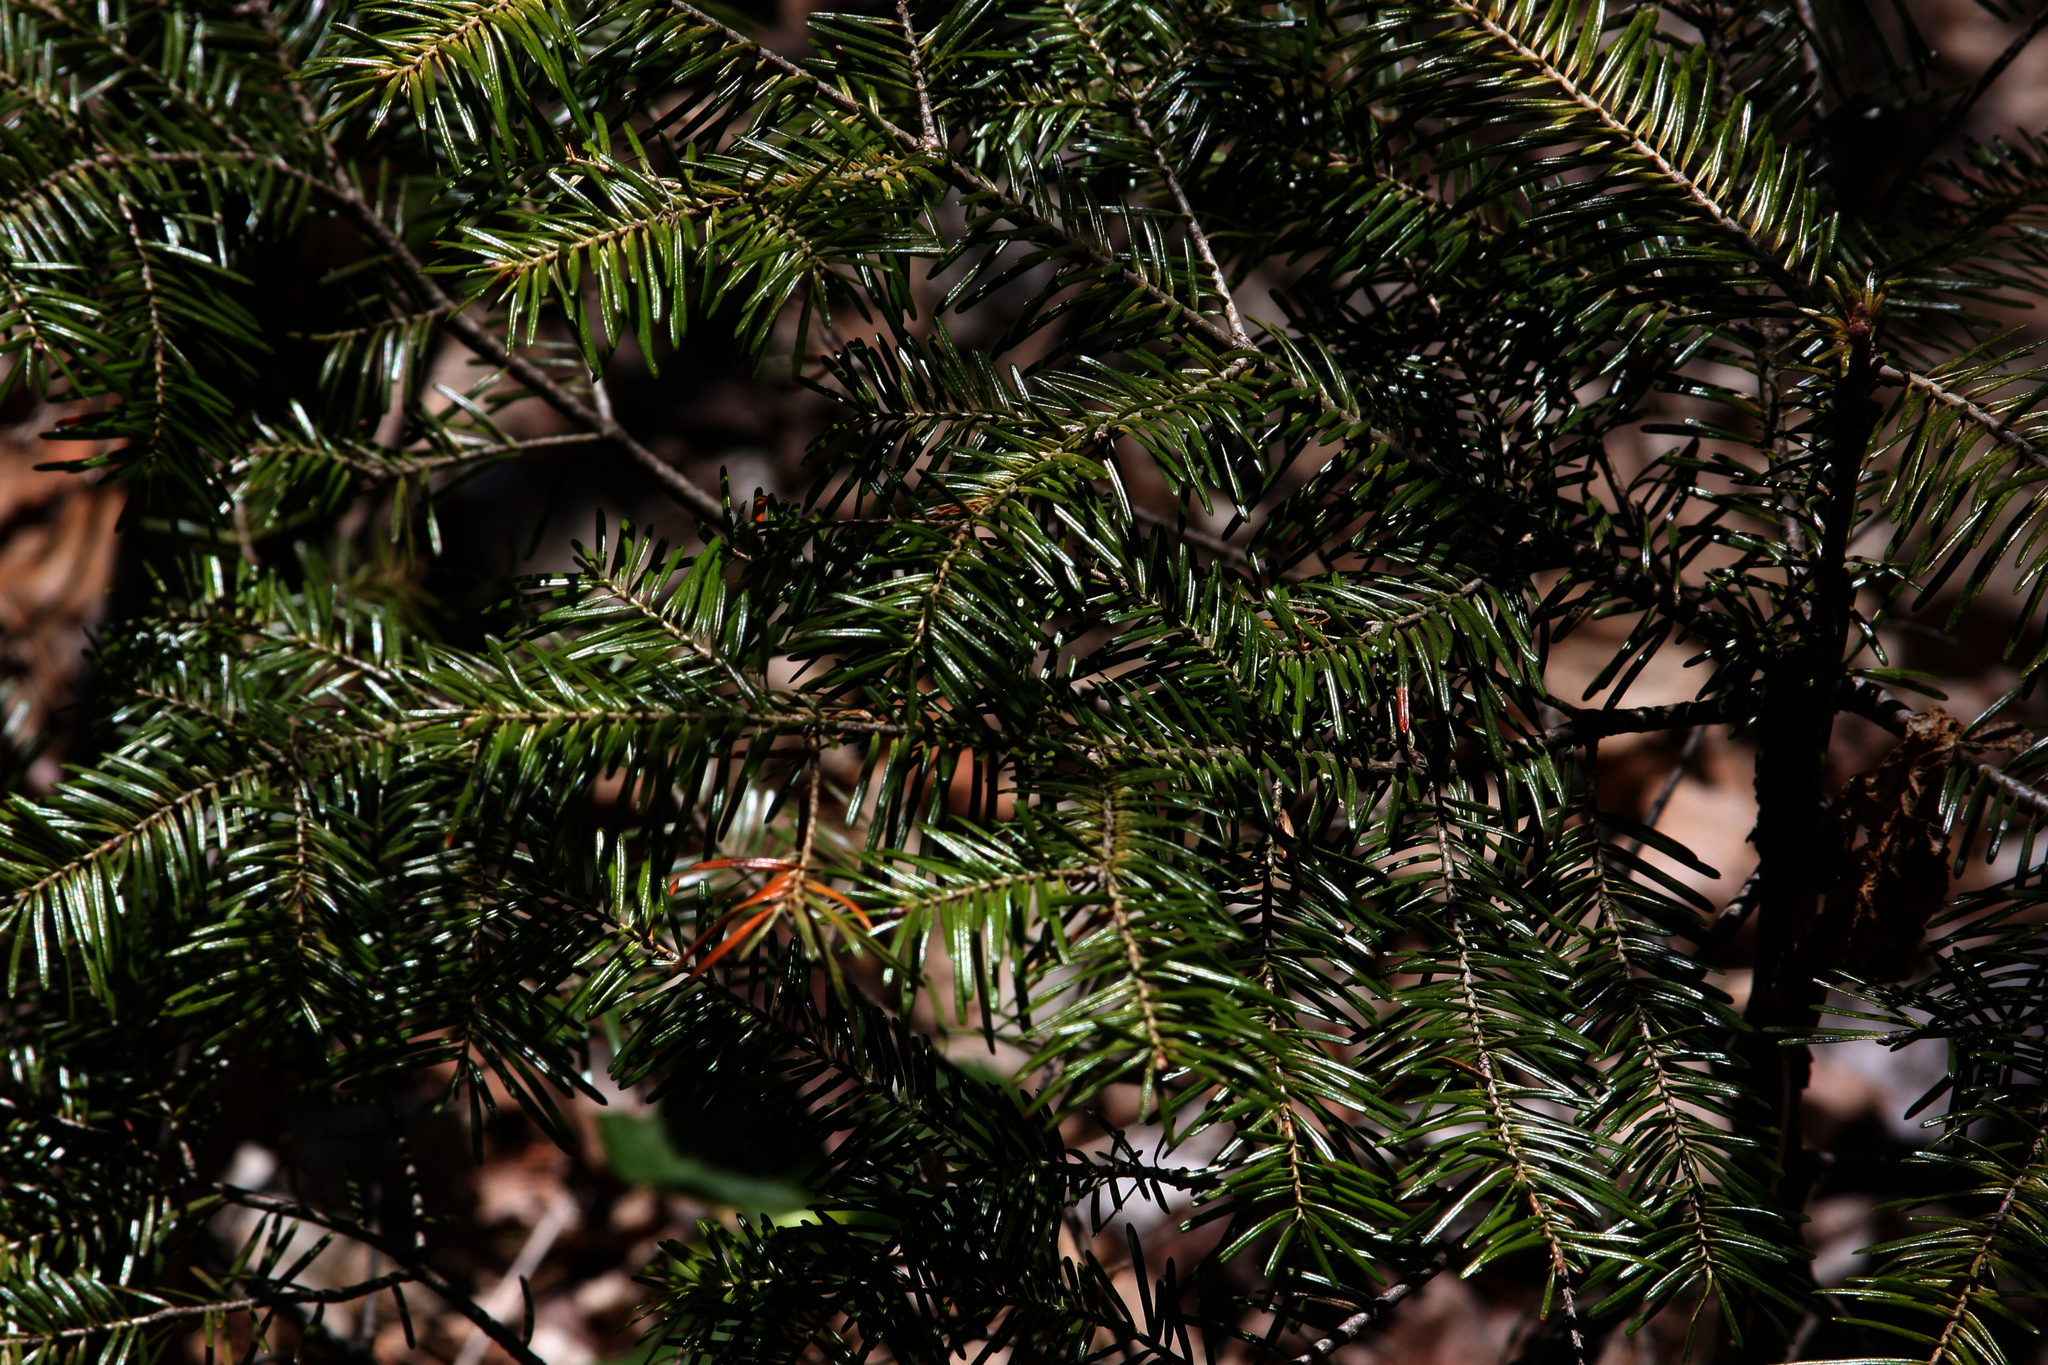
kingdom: Plantae
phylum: Tracheophyta
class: Pinopsida
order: Pinales
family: Pinaceae
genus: Abies
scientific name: Abies balsamea
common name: Balsam fir
